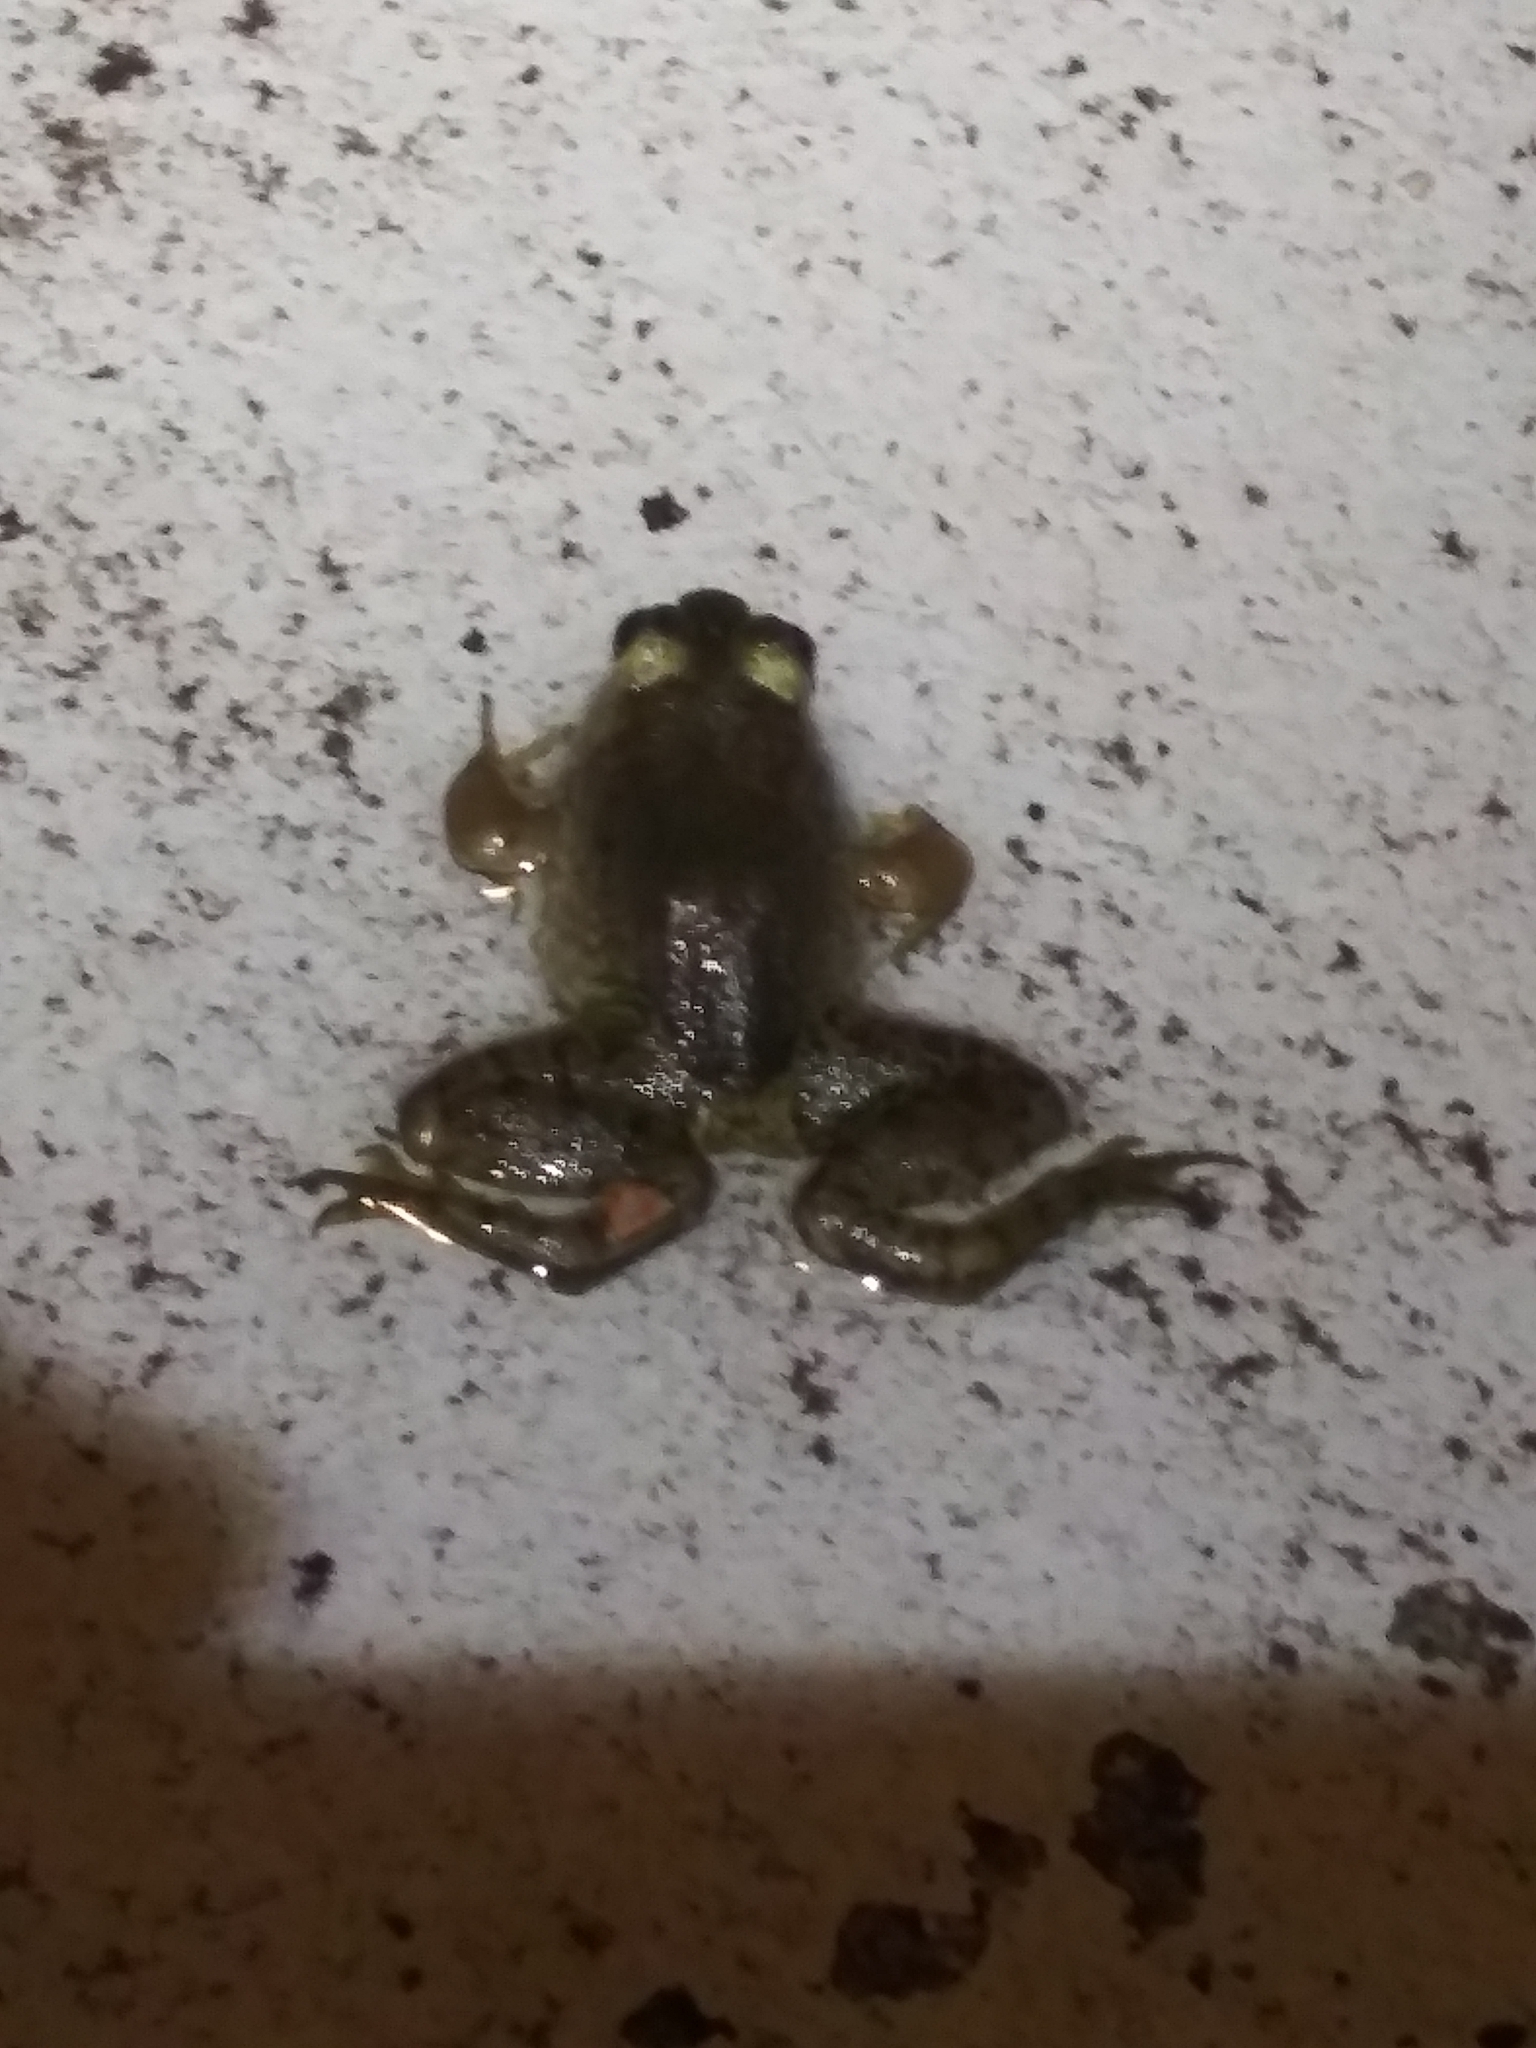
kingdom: Animalia
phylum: Chordata
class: Amphibia
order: Anura
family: Ranidae
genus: Lithobates
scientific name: Lithobates catesbeianus
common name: American bullfrog
